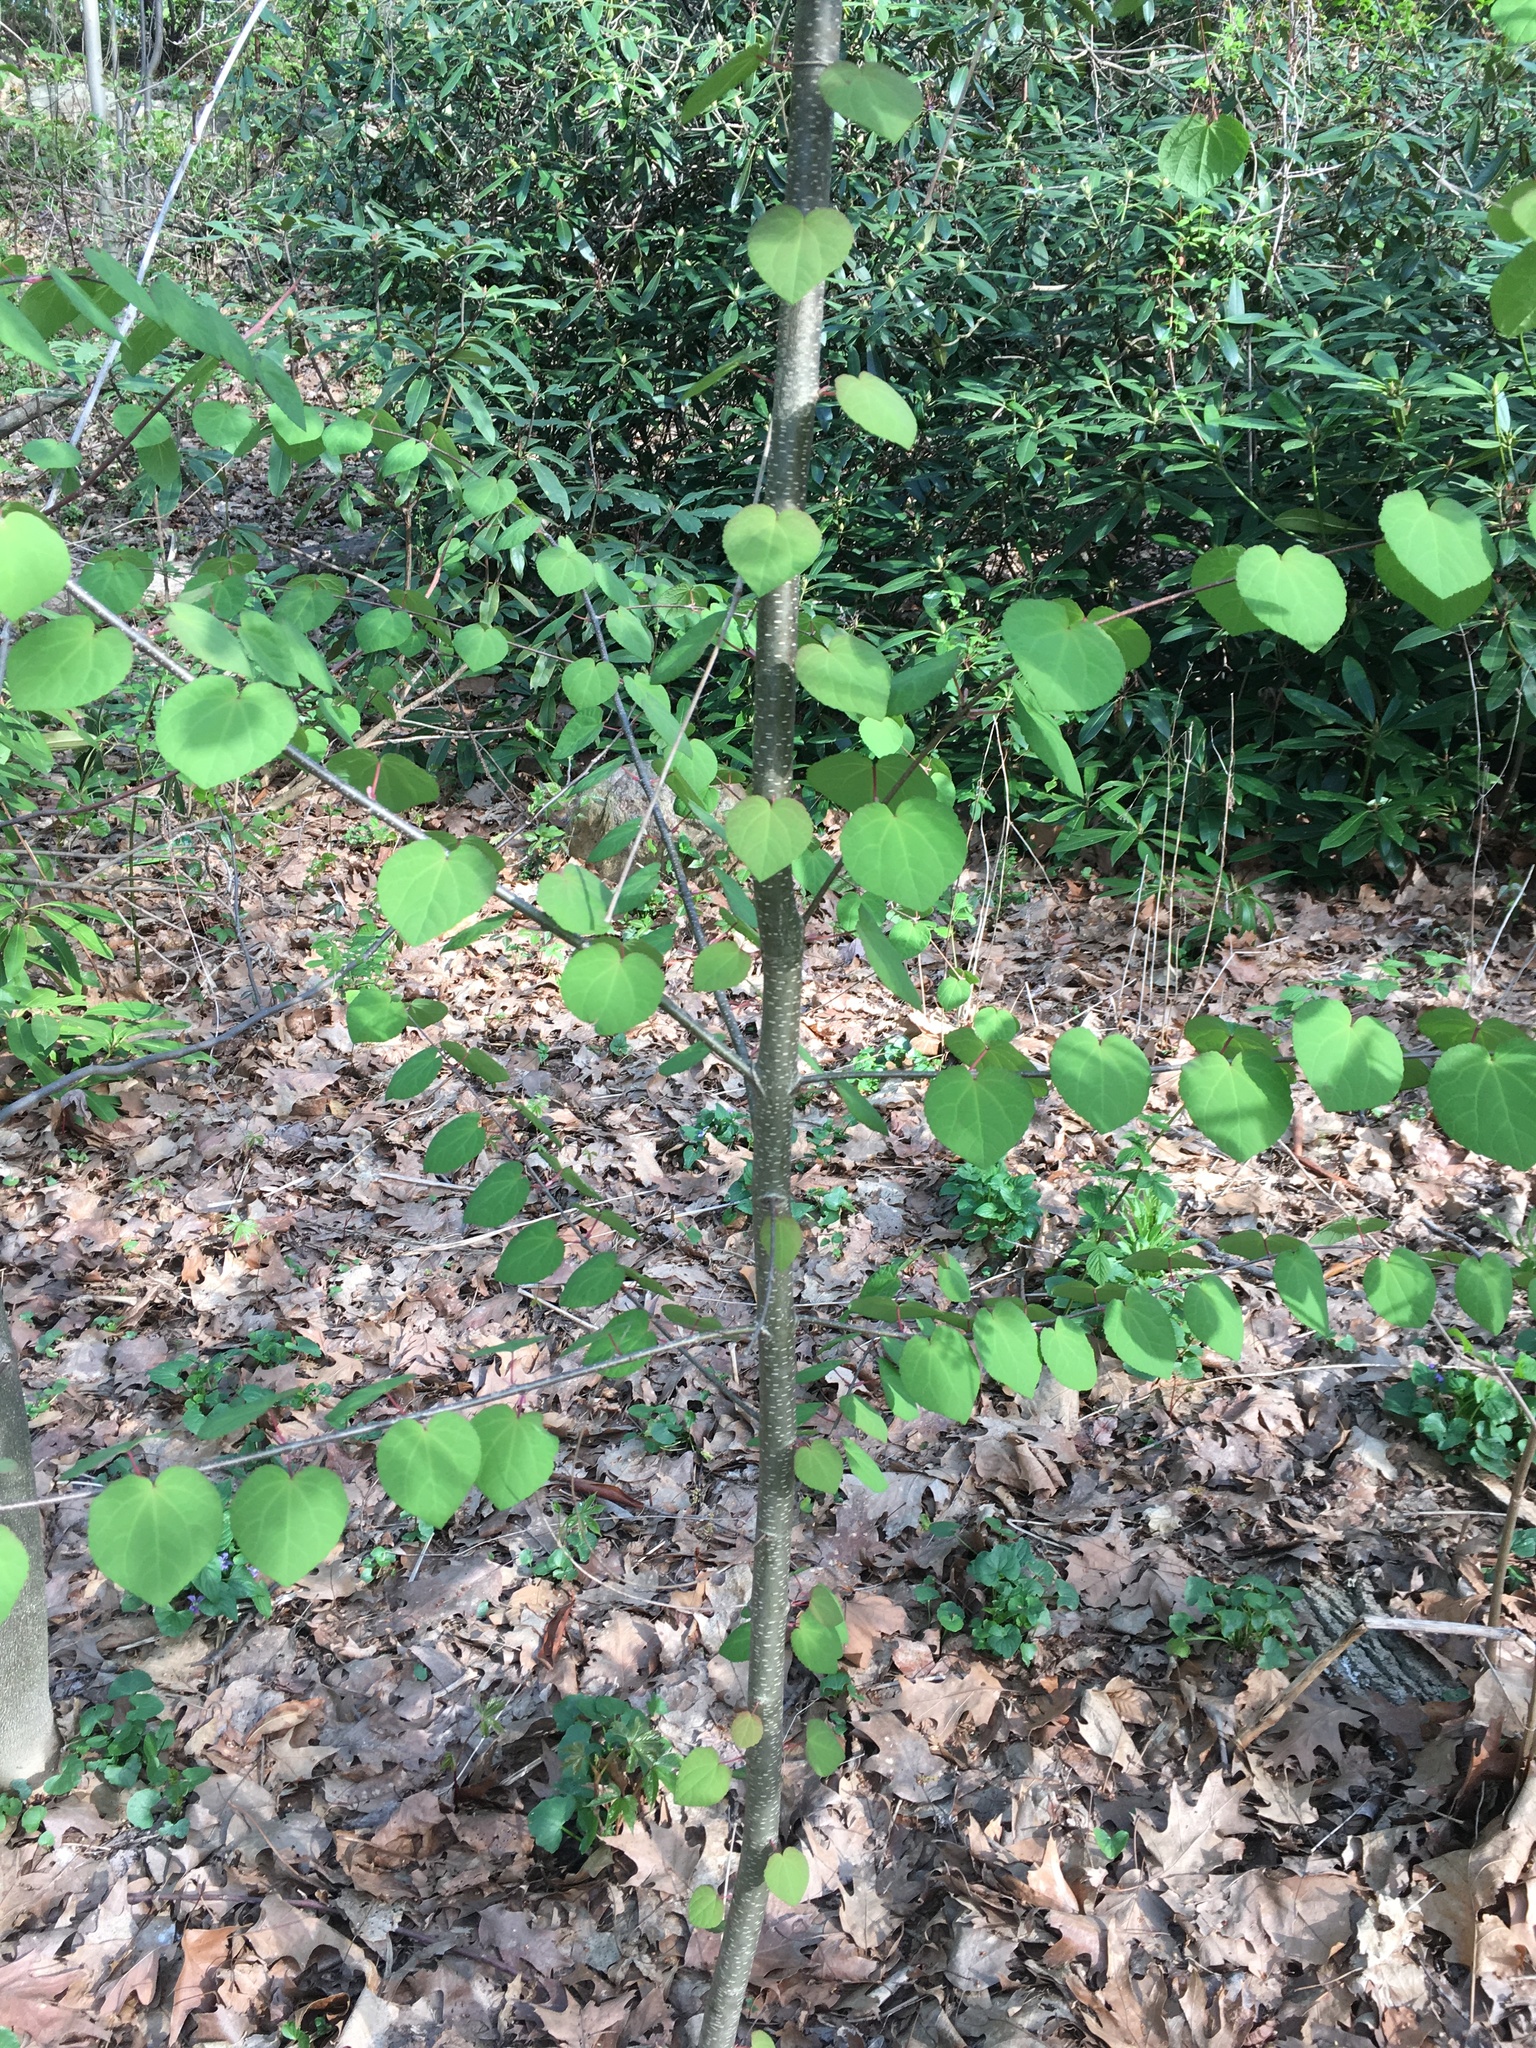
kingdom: Plantae
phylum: Tracheophyta
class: Magnoliopsida
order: Saxifragales
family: Cercidiphyllaceae
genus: Cercidiphyllum
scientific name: Cercidiphyllum japonicum
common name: Katsura tree
